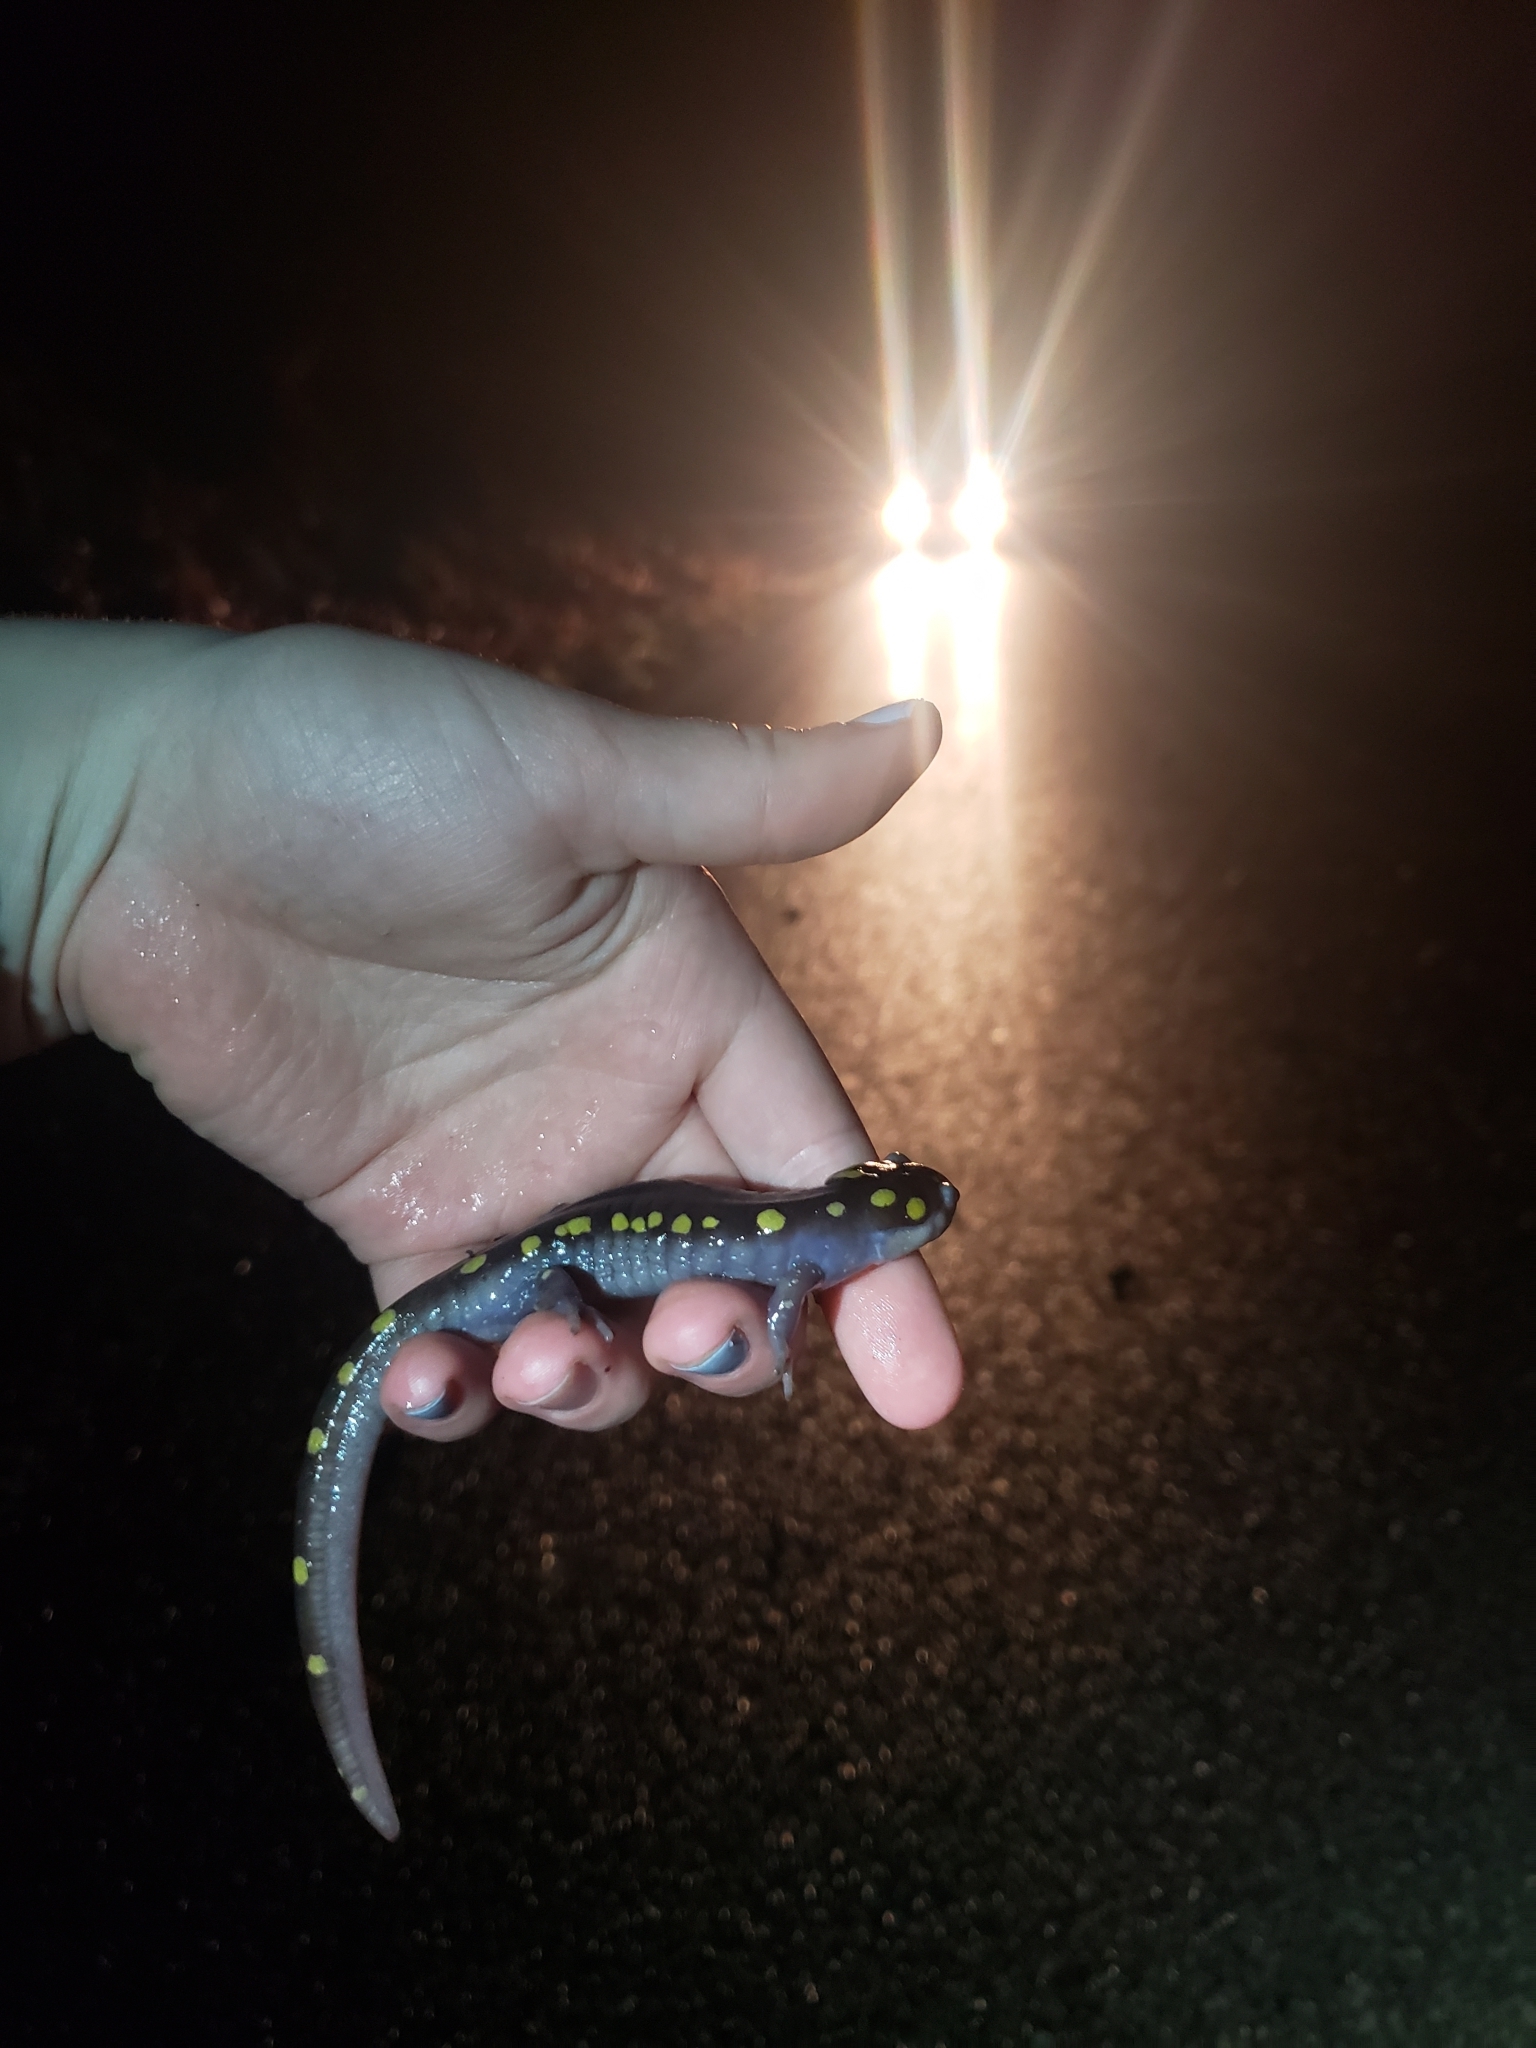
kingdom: Animalia
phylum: Chordata
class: Amphibia
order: Caudata
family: Ambystomatidae
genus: Ambystoma
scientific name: Ambystoma maculatum
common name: Spotted salamander
